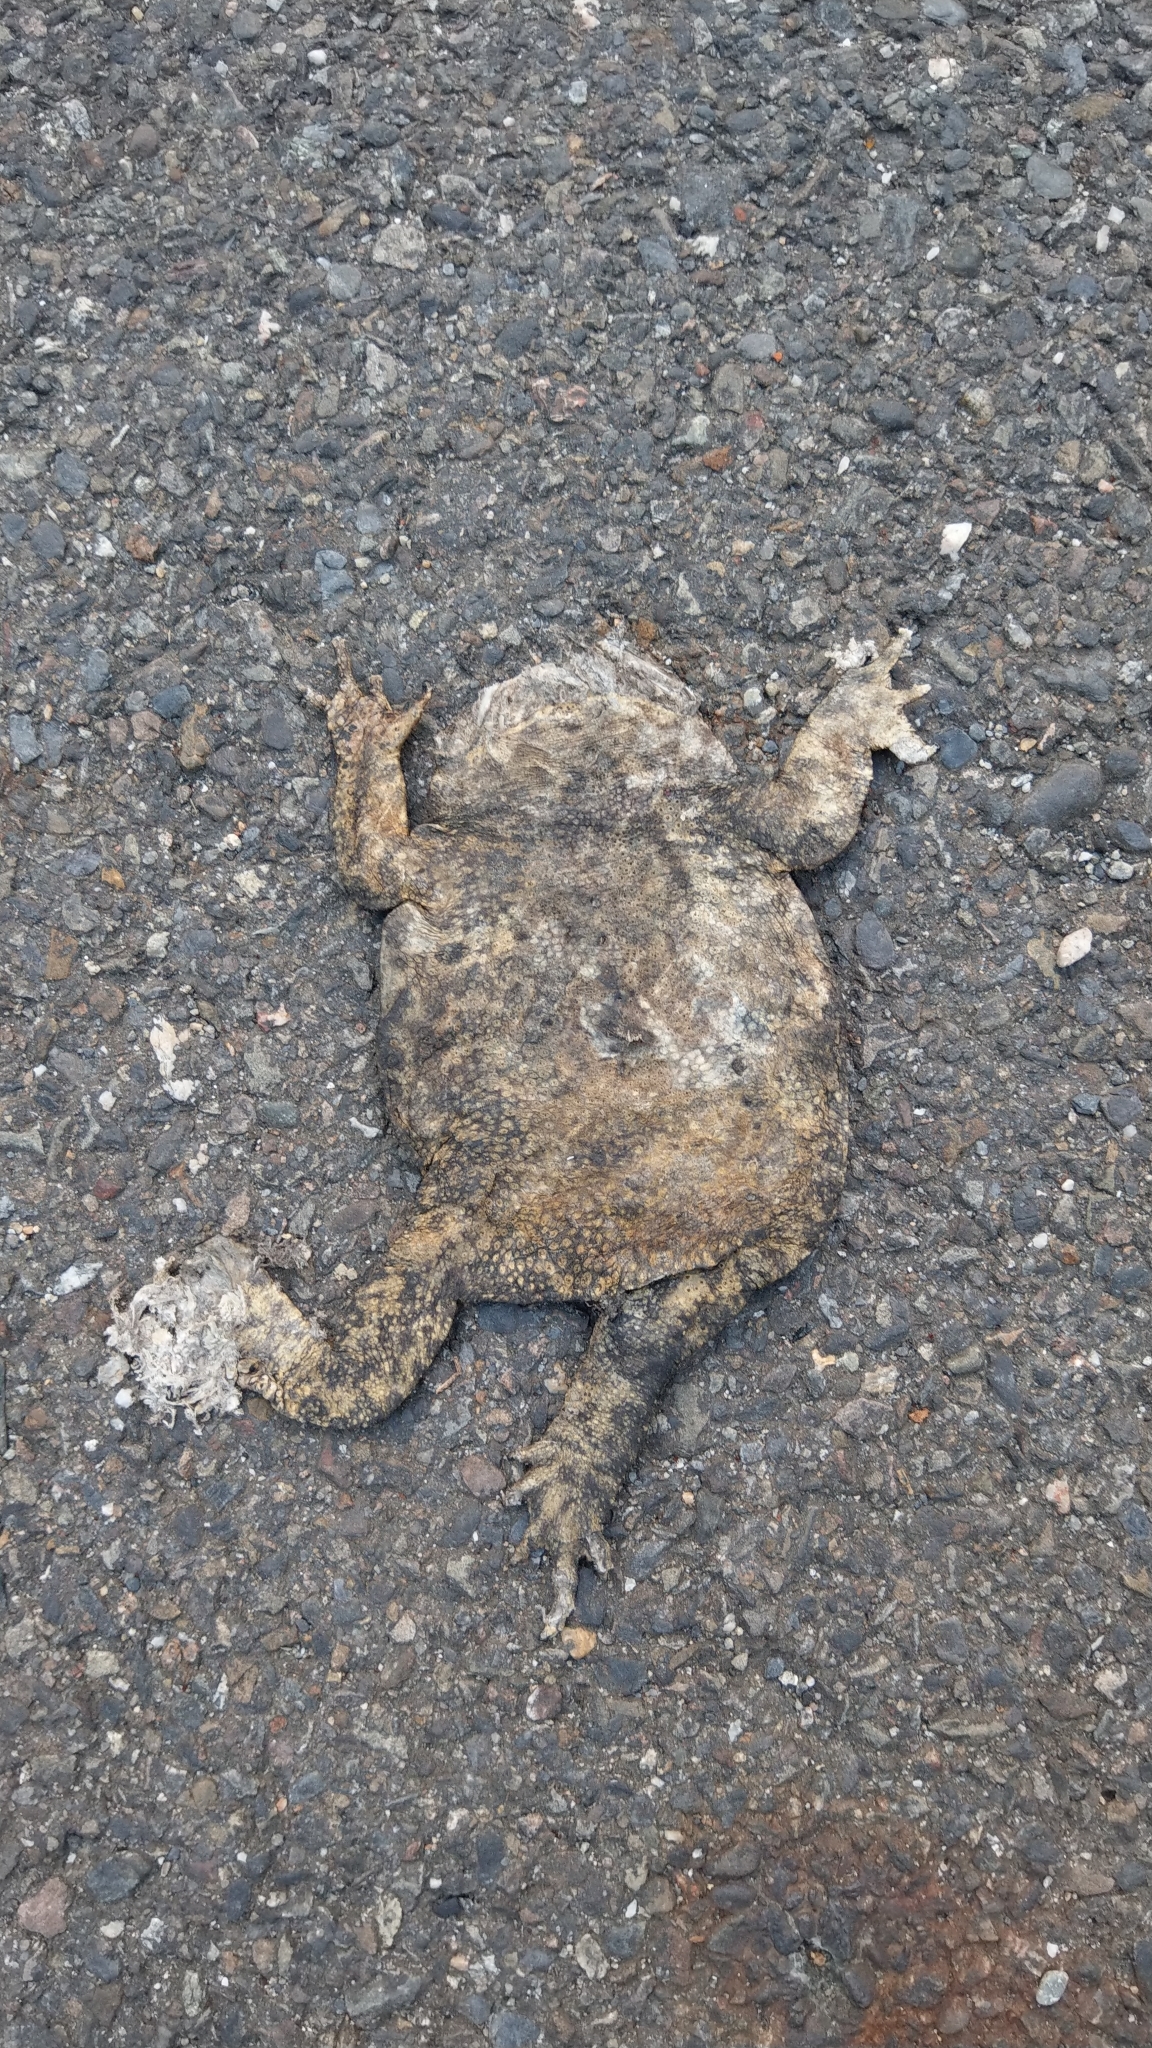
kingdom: Animalia
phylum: Chordata
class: Amphibia
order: Anura
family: Bufonidae
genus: Duttaphrynus
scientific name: Duttaphrynus melanostictus
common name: Common sunda toad
